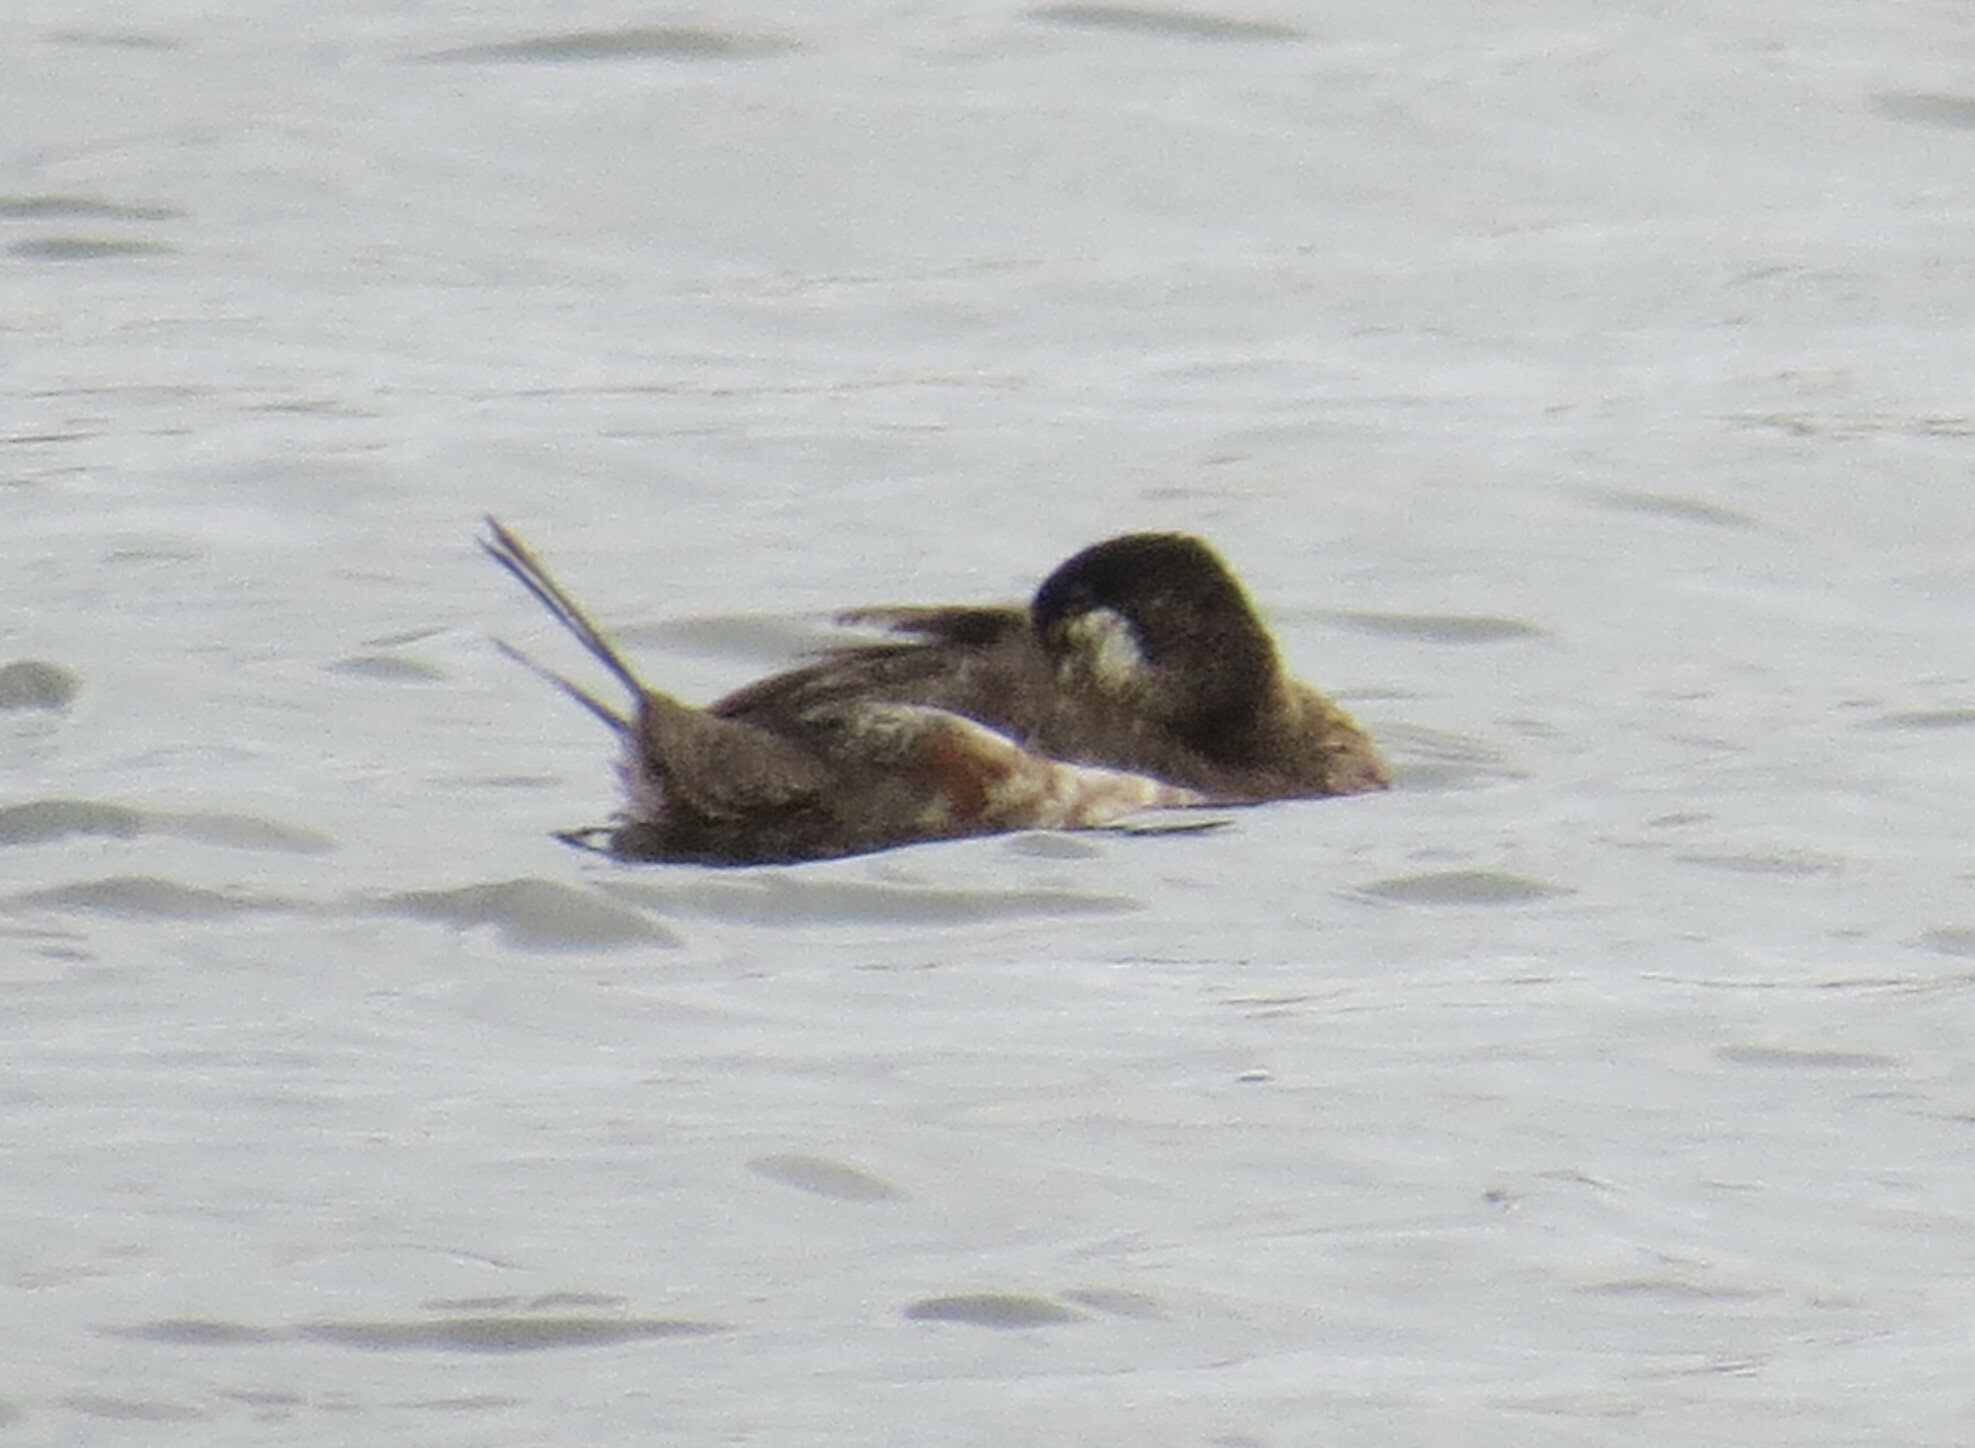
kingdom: Animalia
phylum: Chordata
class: Aves
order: Anseriformes
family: Anatidae
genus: Oxyura
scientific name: Oxyura jamaicensis
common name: Ruddy duck
